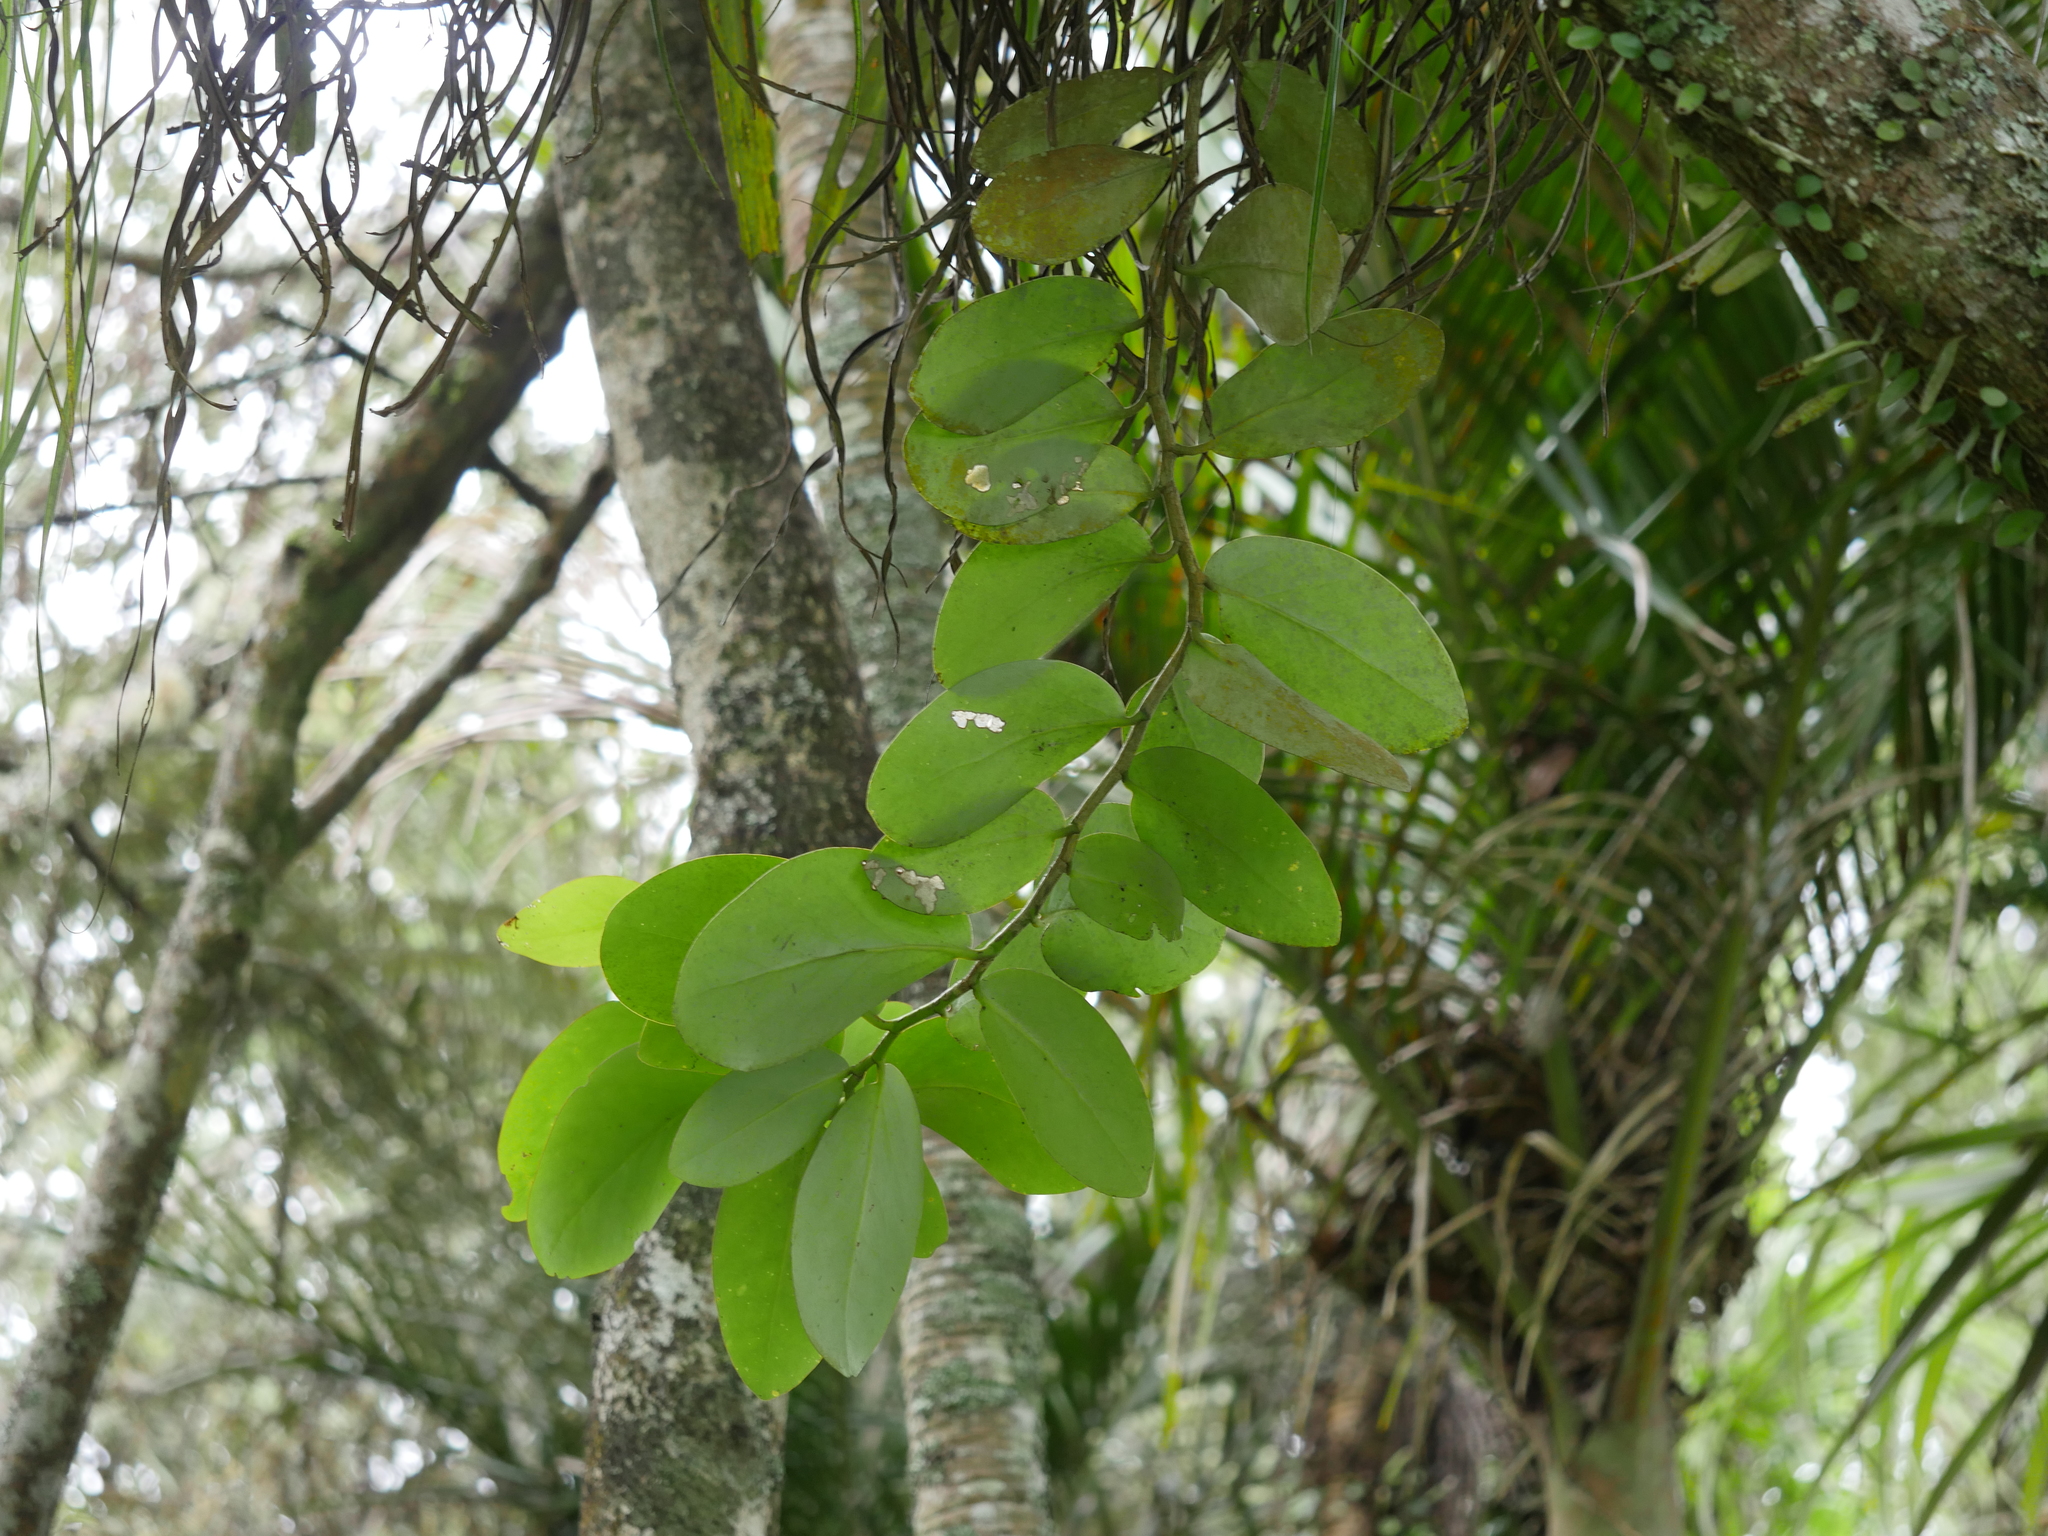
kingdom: Plantae
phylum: Tracheophyta
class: Magnoliopsida
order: Apiales
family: Griseliniaceae
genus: Griselinia
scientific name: Griselinia lucida
